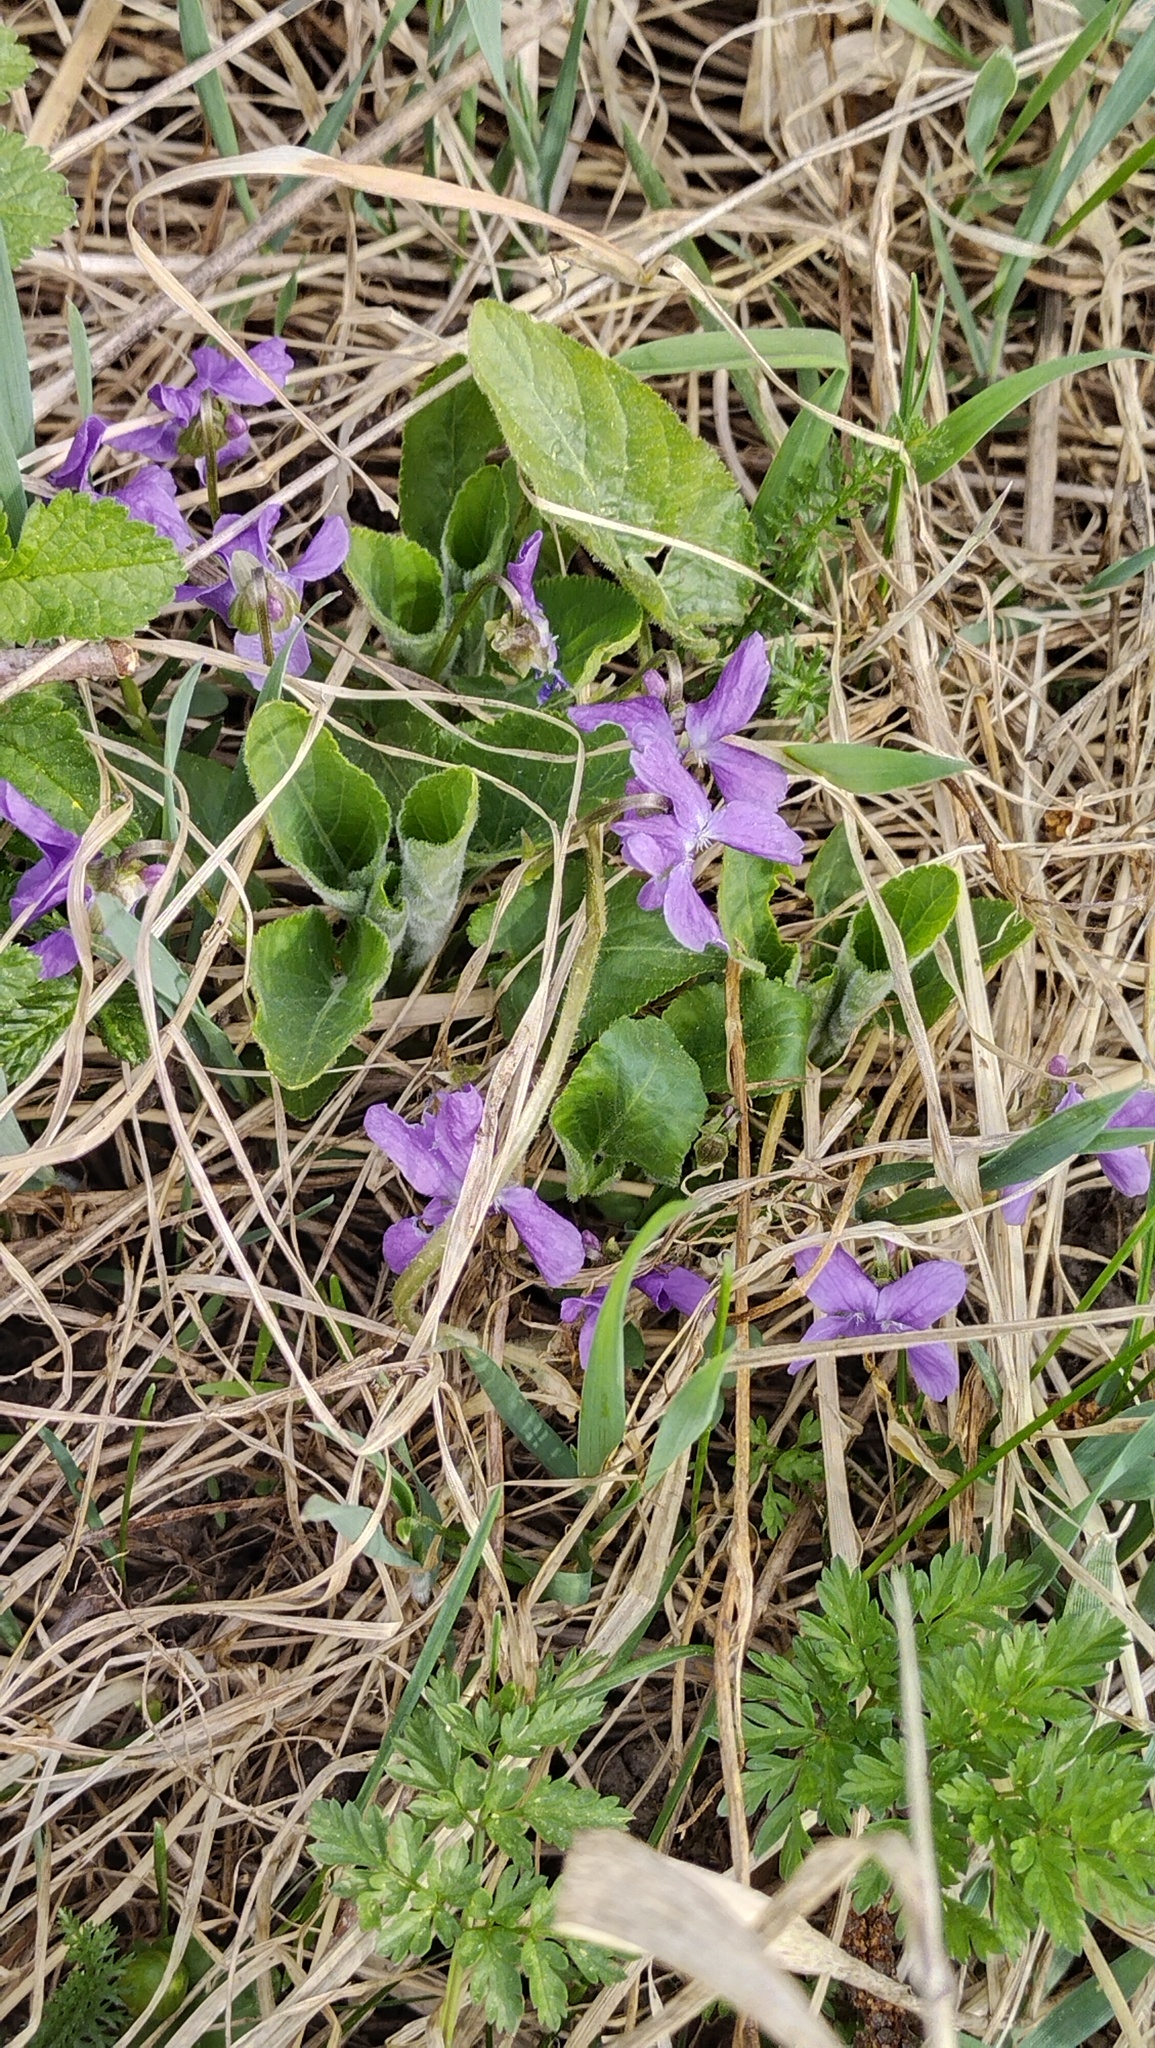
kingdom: Plantae
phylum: Tracheophyta
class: Magnoliopsida
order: Malpighiales
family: Violaceae
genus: Viola
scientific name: Viola hirta
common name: Hairy violet
